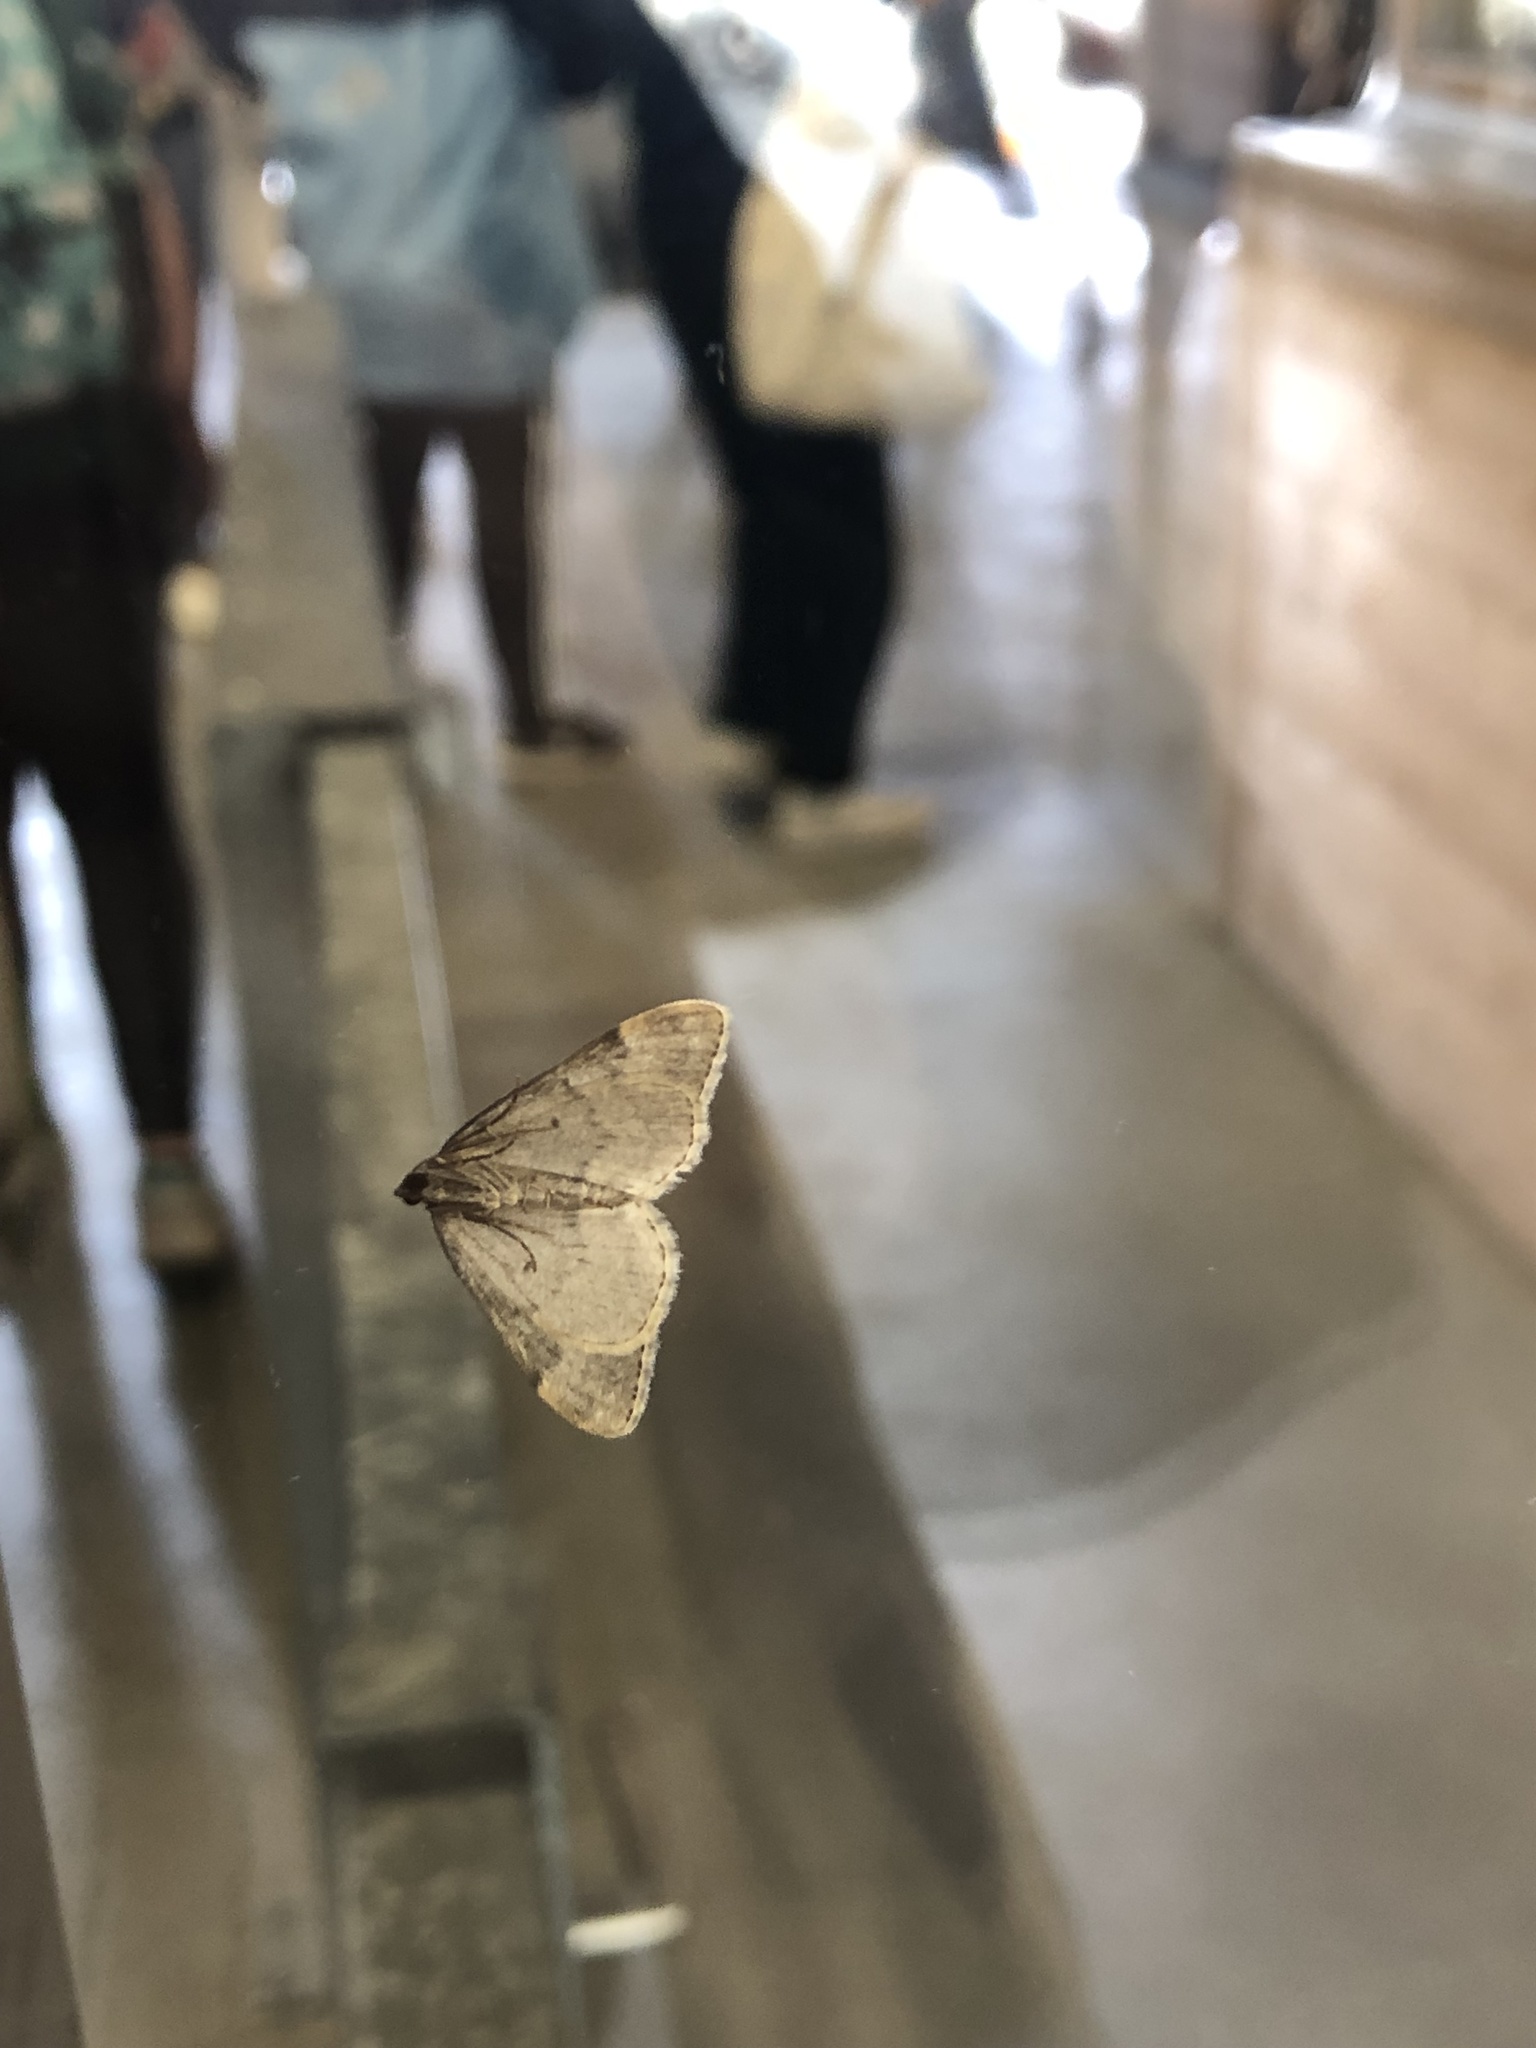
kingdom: Animalia
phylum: Arthropoda
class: Insecta
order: Lepidoptera
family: Geometridae
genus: Dysstroma
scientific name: Dysstroma truncata
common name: Common marbled carpet
